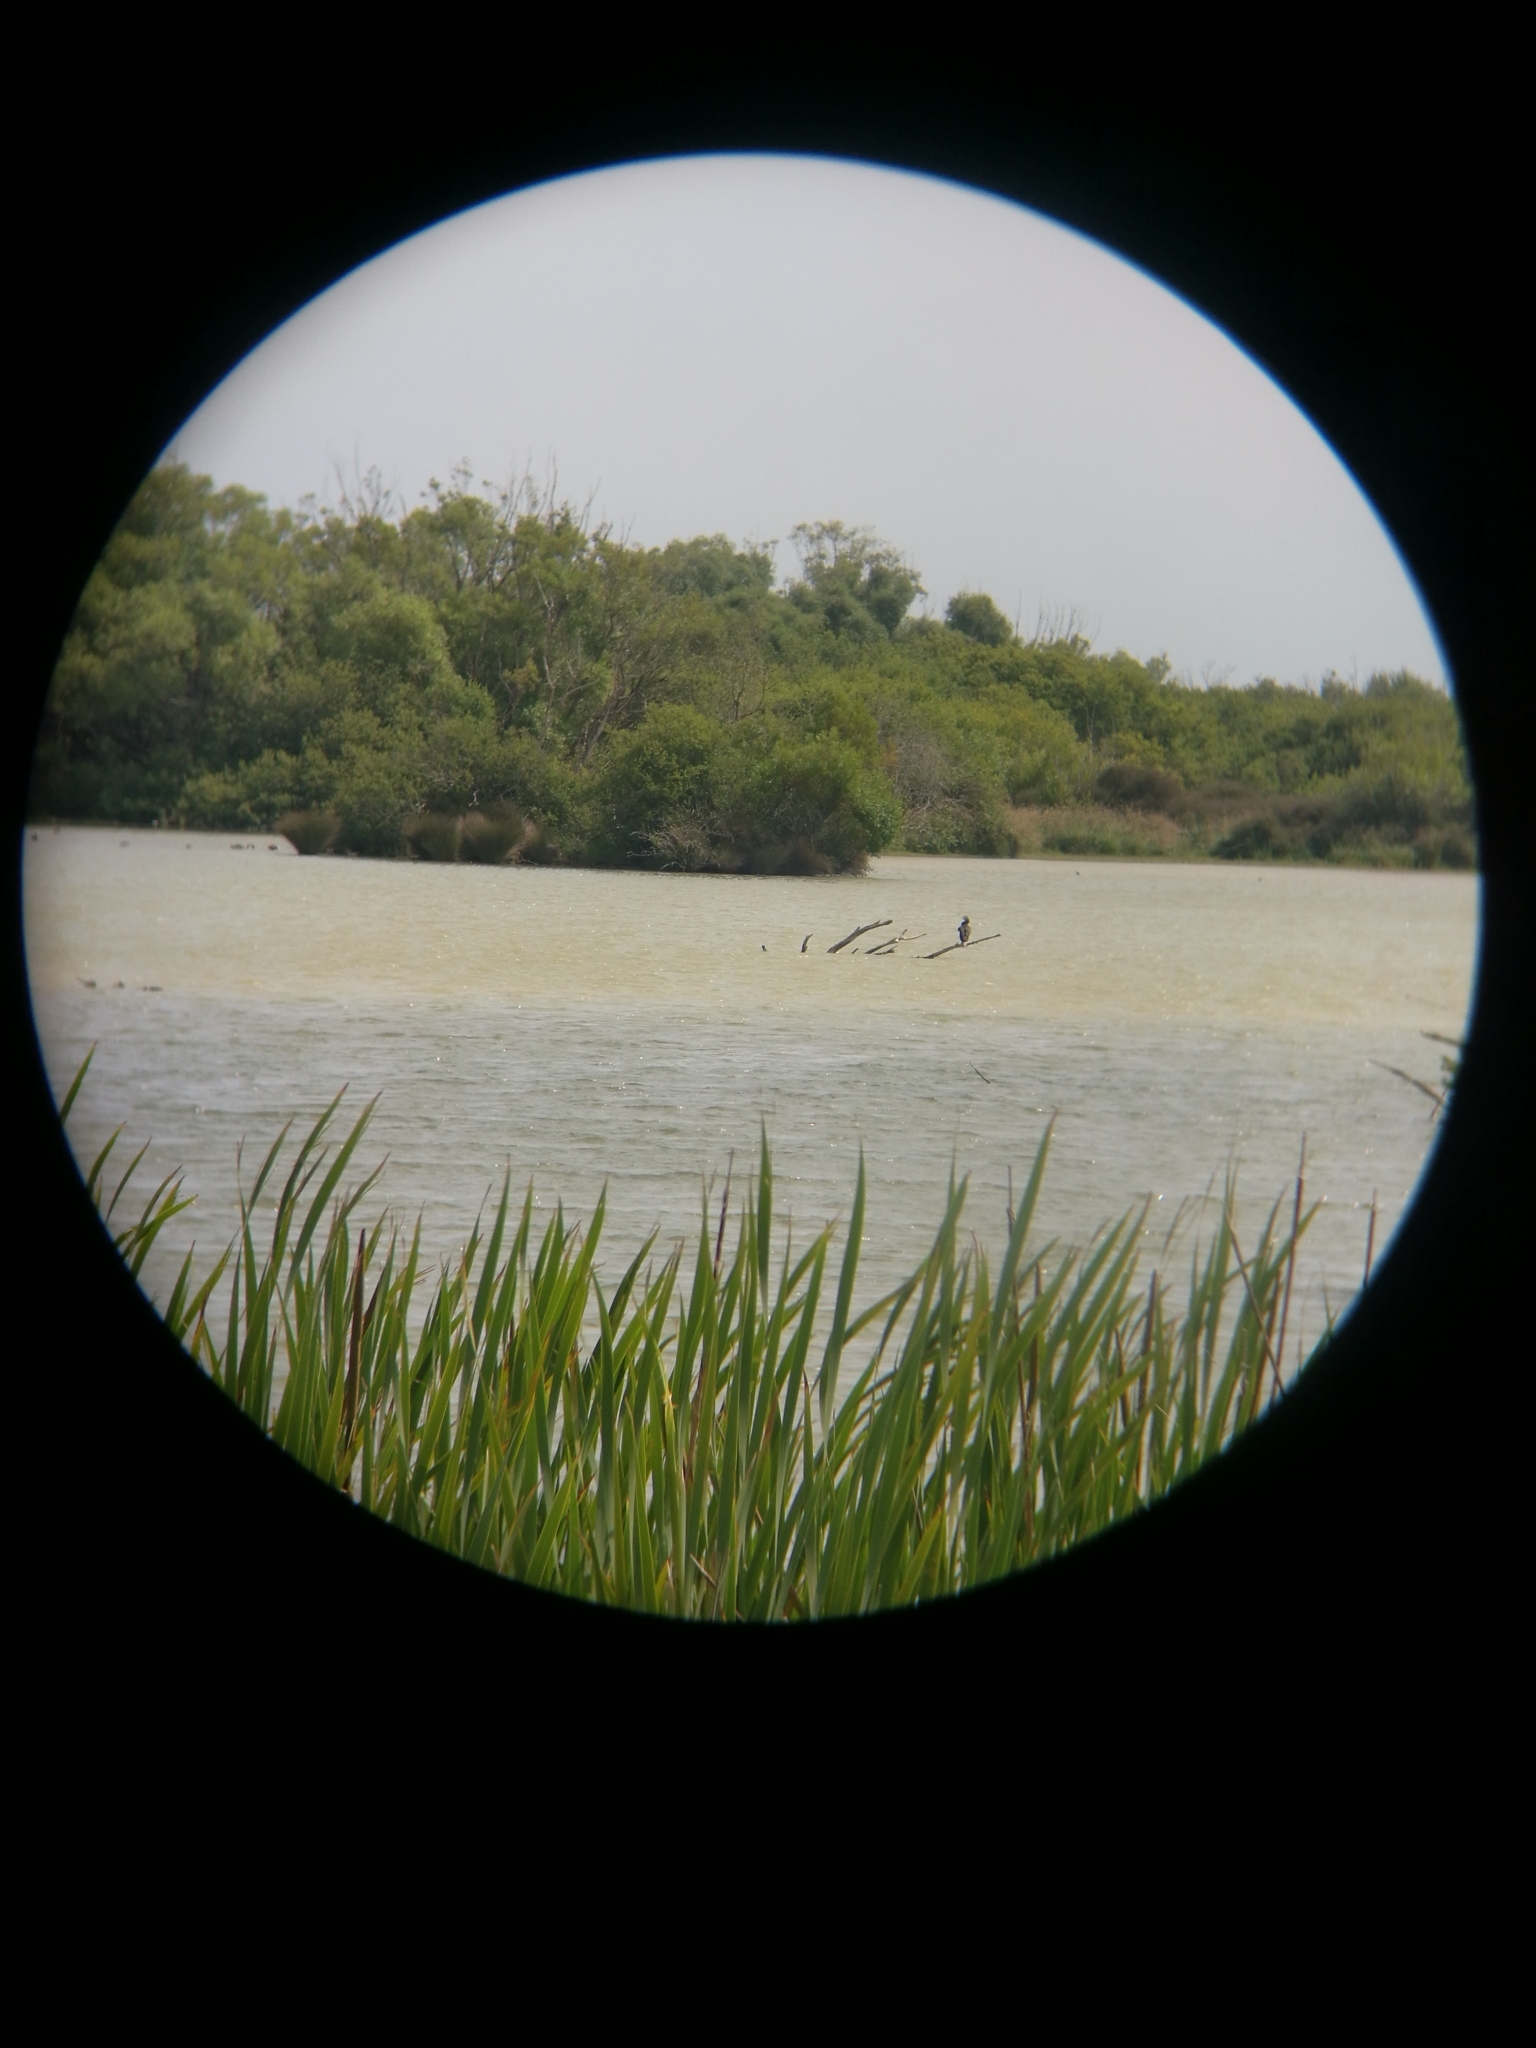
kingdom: Animalia
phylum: Chordata
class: Aves
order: Suliformes
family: Phalacrocoracidae
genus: Phalacrocorax
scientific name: Phalacrocorax varius
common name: Pied cormorant
